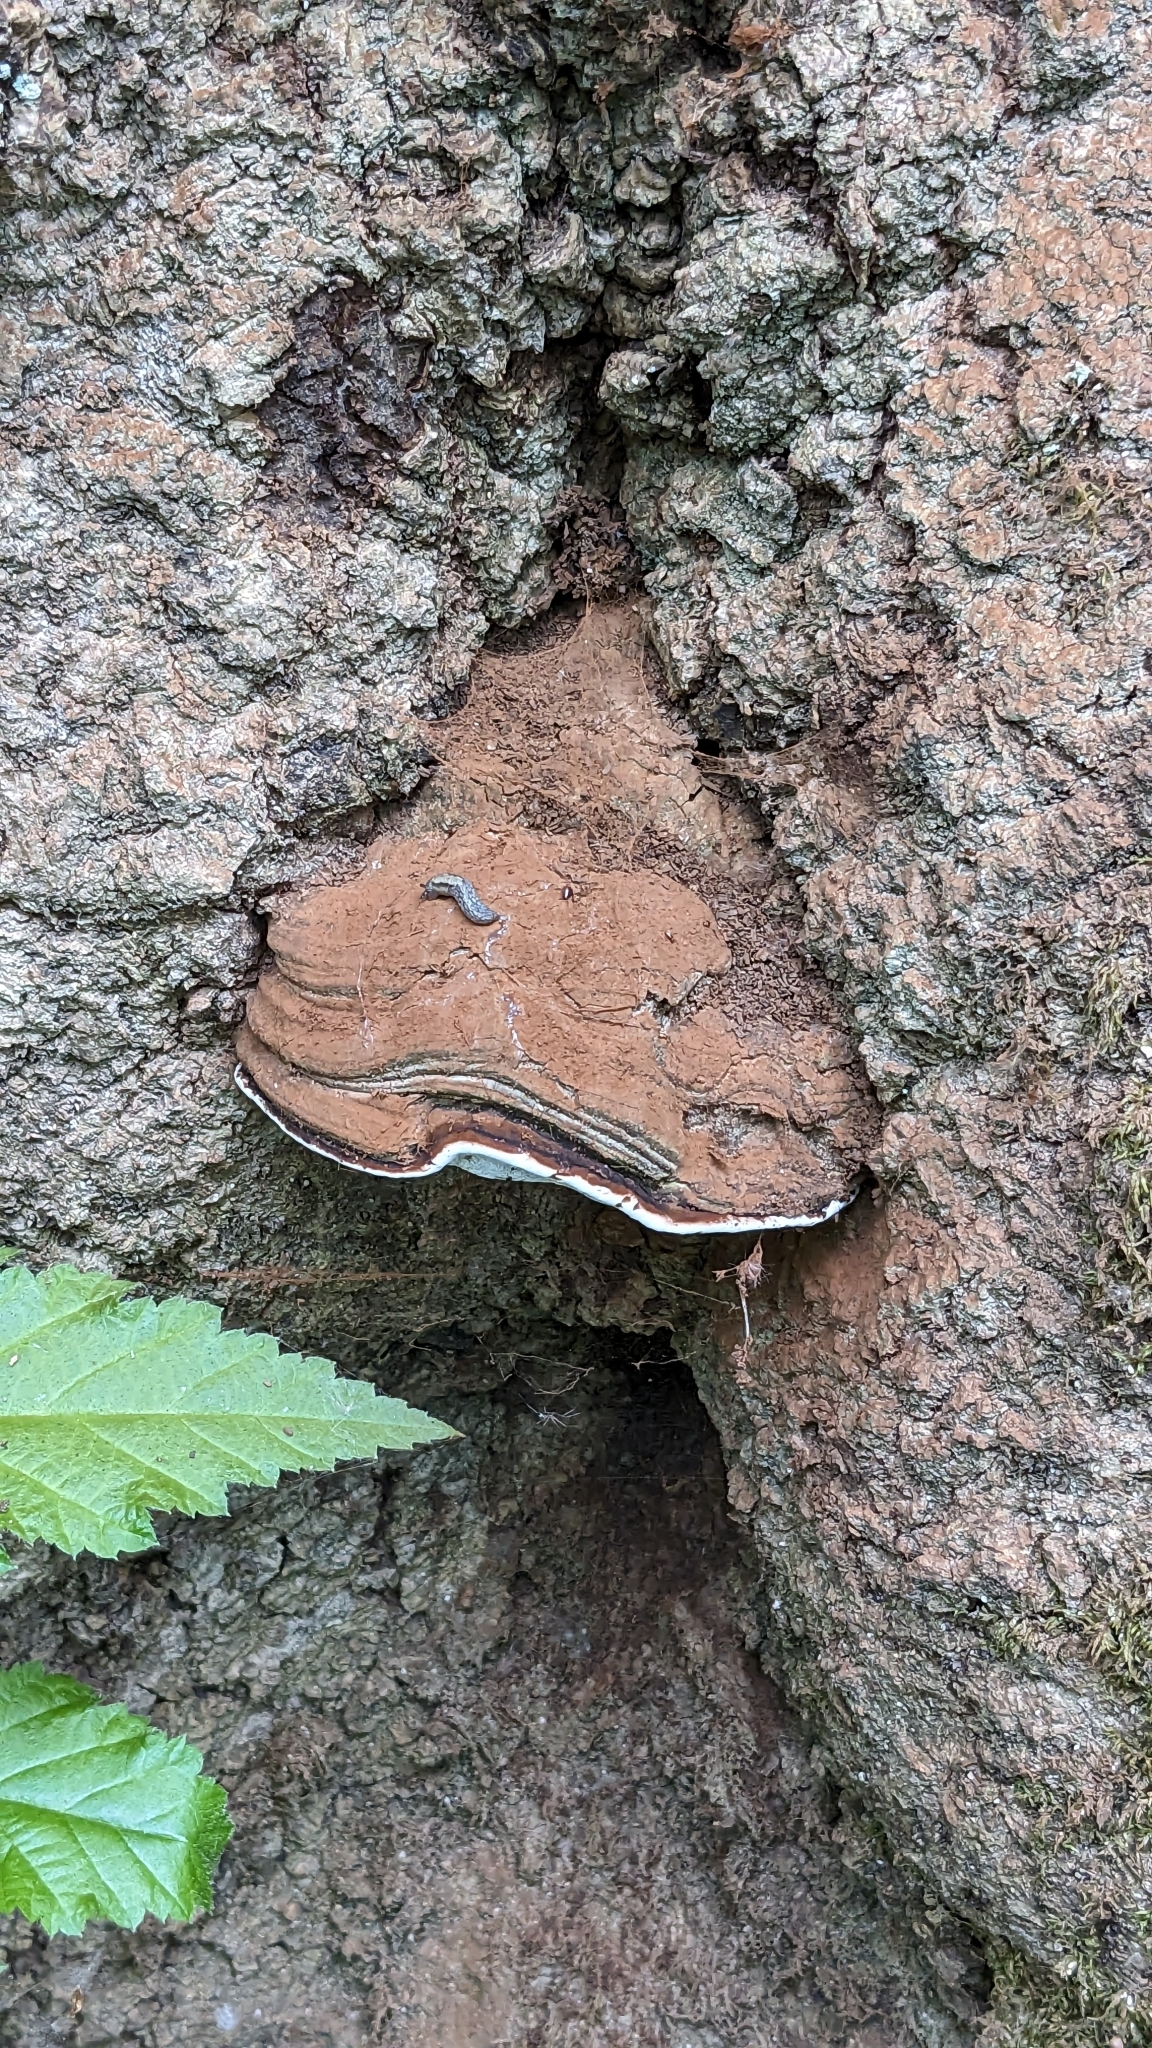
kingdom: Fungi
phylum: Basidiomycota
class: Agaricomycetes
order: Polyporales
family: Polyporaceae
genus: Ganoderma
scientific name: Ganoderma brownii
